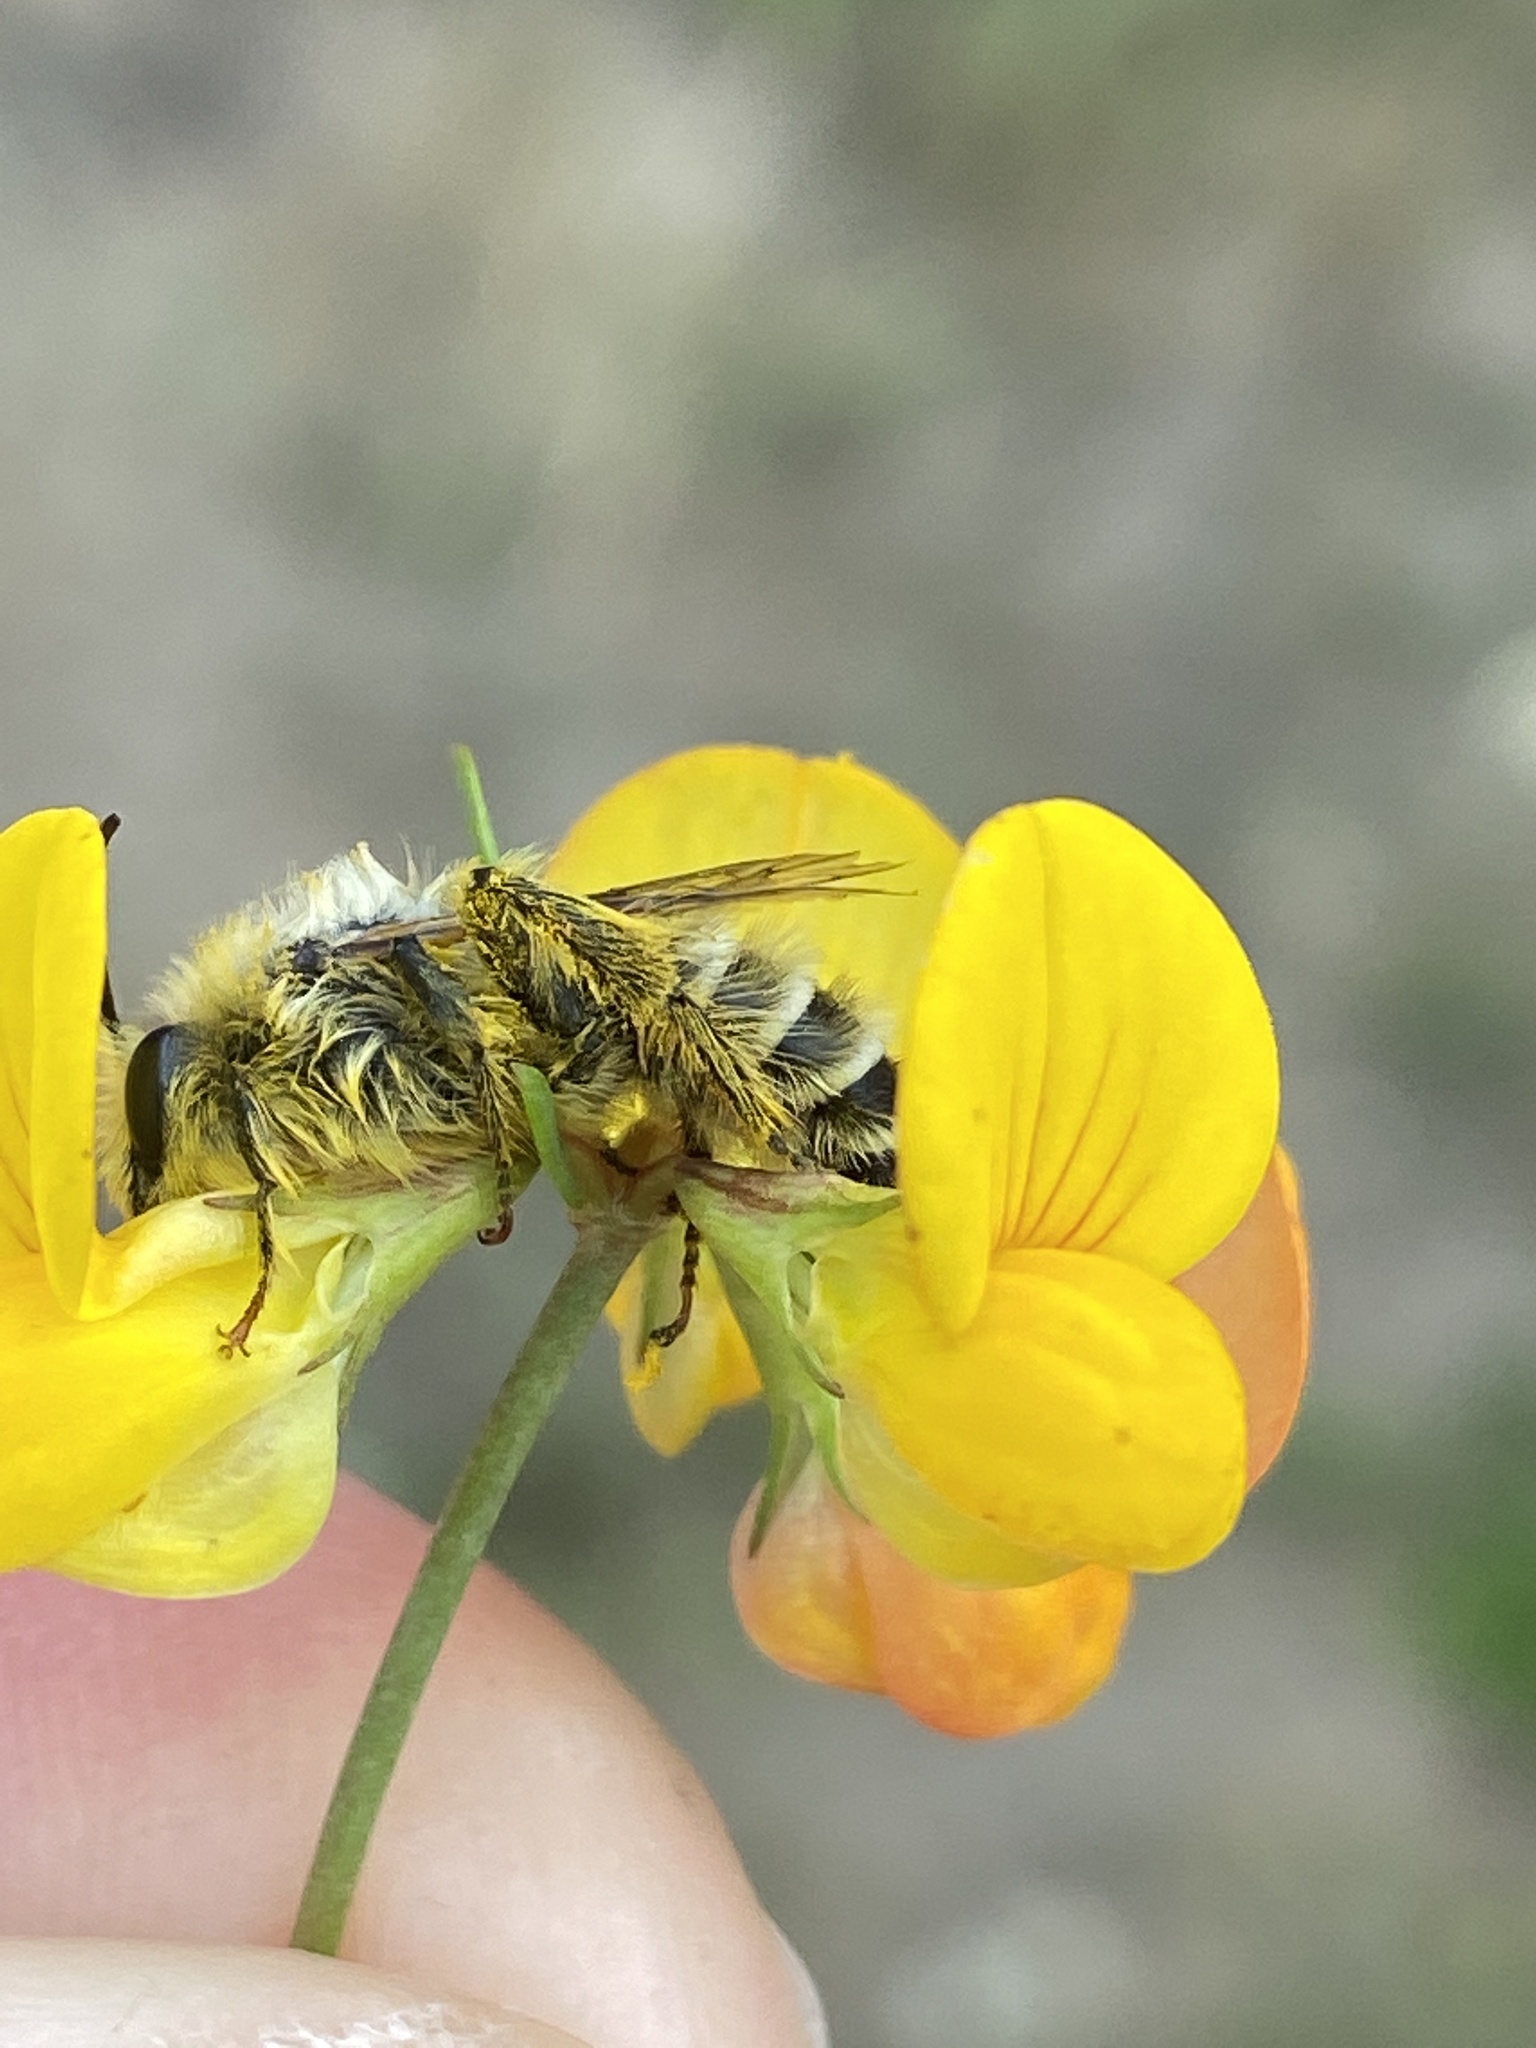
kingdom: Animalia
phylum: Arthropoda
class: Insecta
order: Hymenoptera
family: Melittidae
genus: Dasypoda
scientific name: Dasypoda hirtipes
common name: Pantaloon bee
